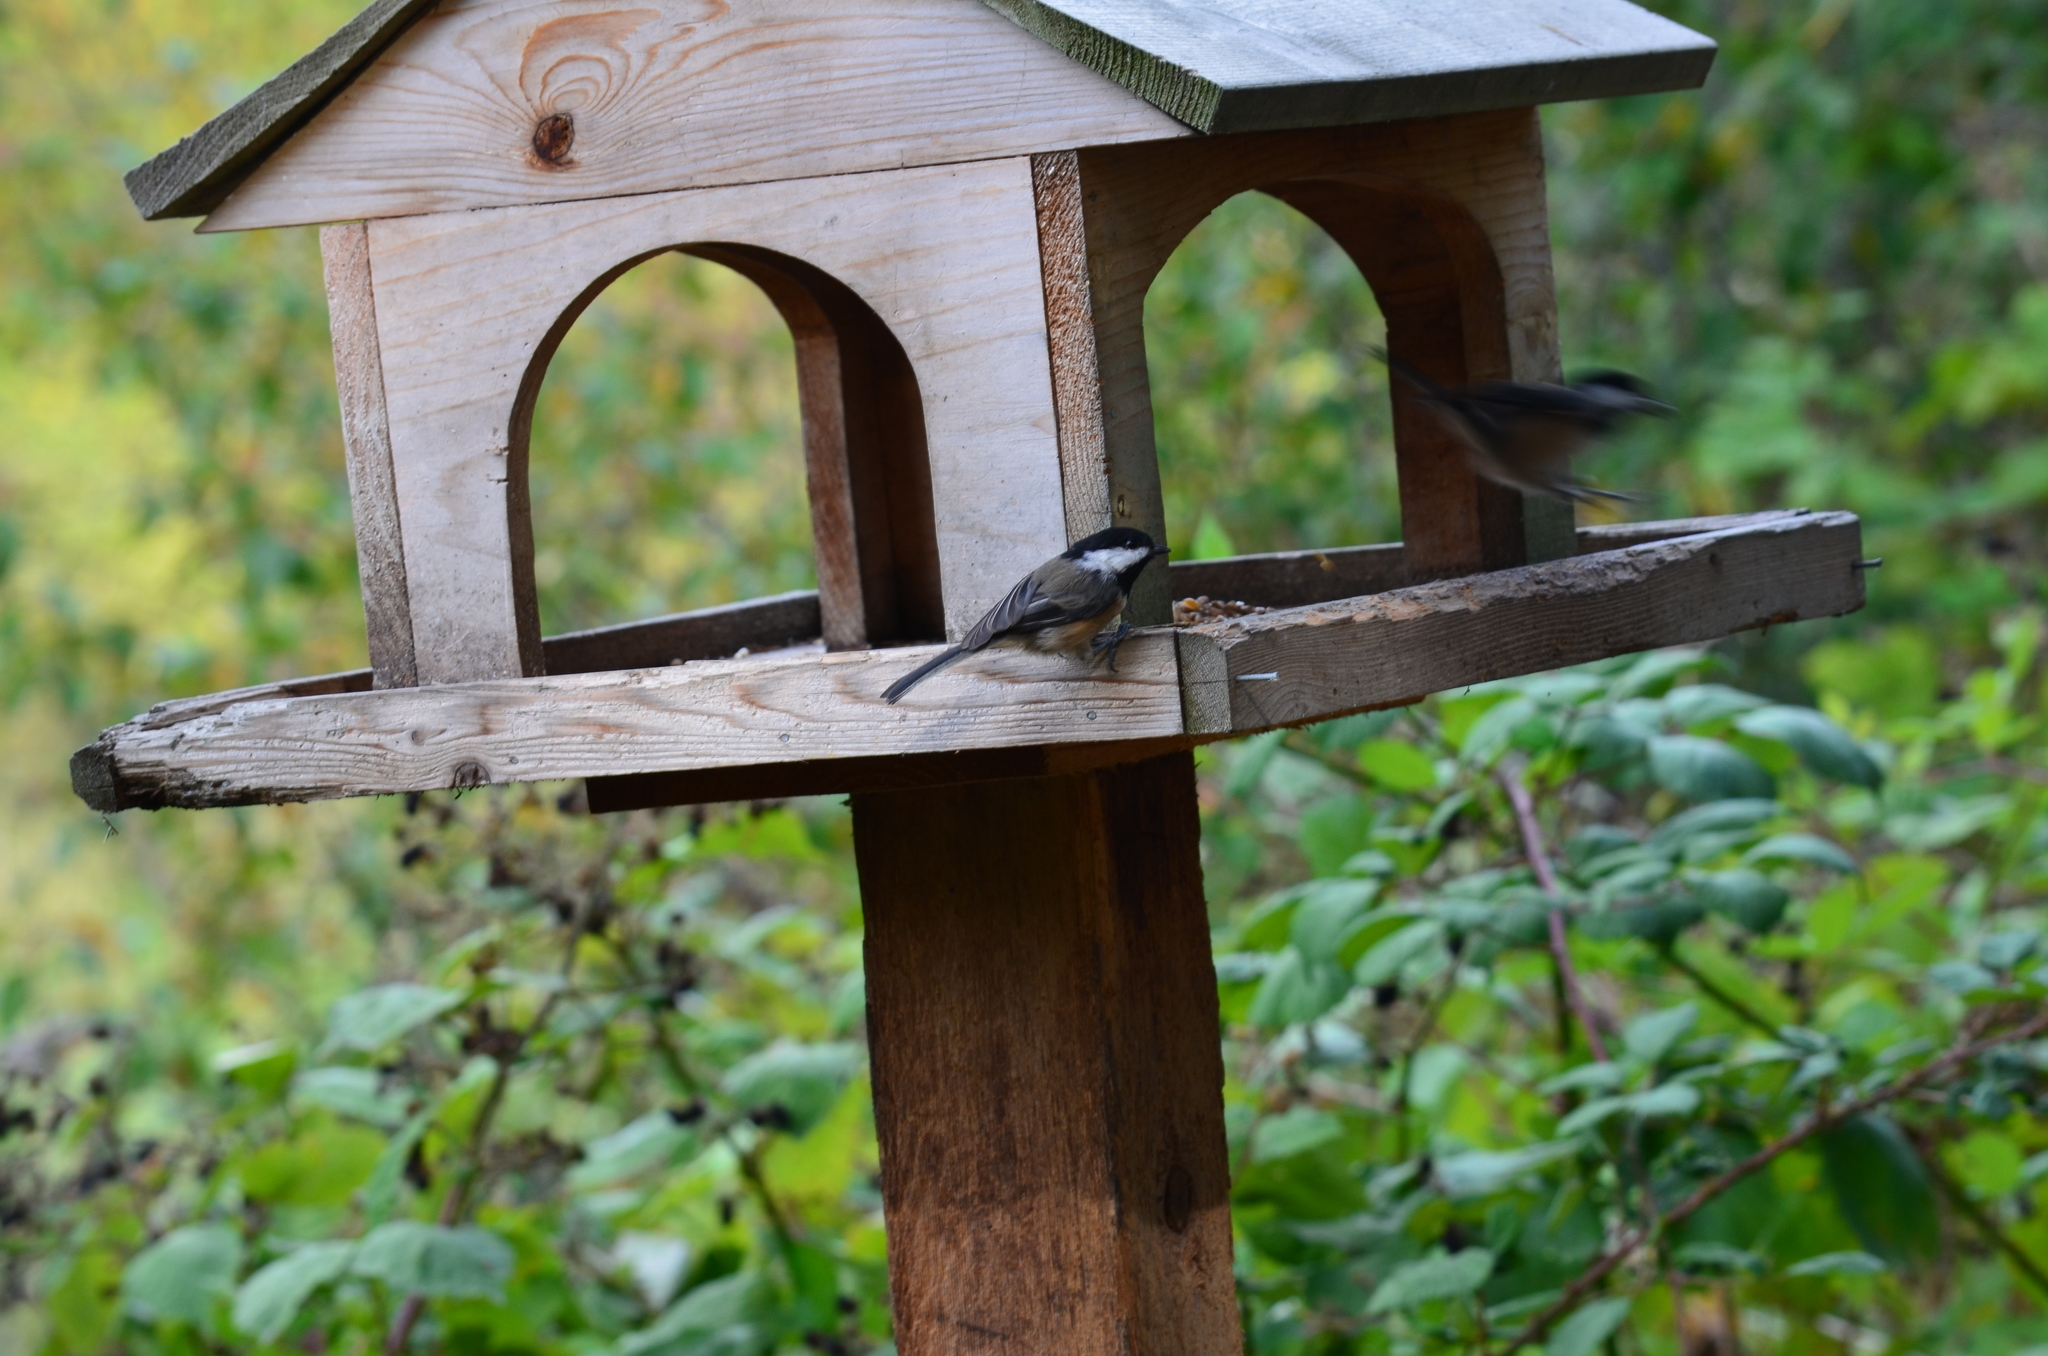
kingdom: Animalia
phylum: Chordata
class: Aves
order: Passeriformes
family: Paridae
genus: Poecile
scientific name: Poecile atricapillus
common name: Black-capped chickadee
